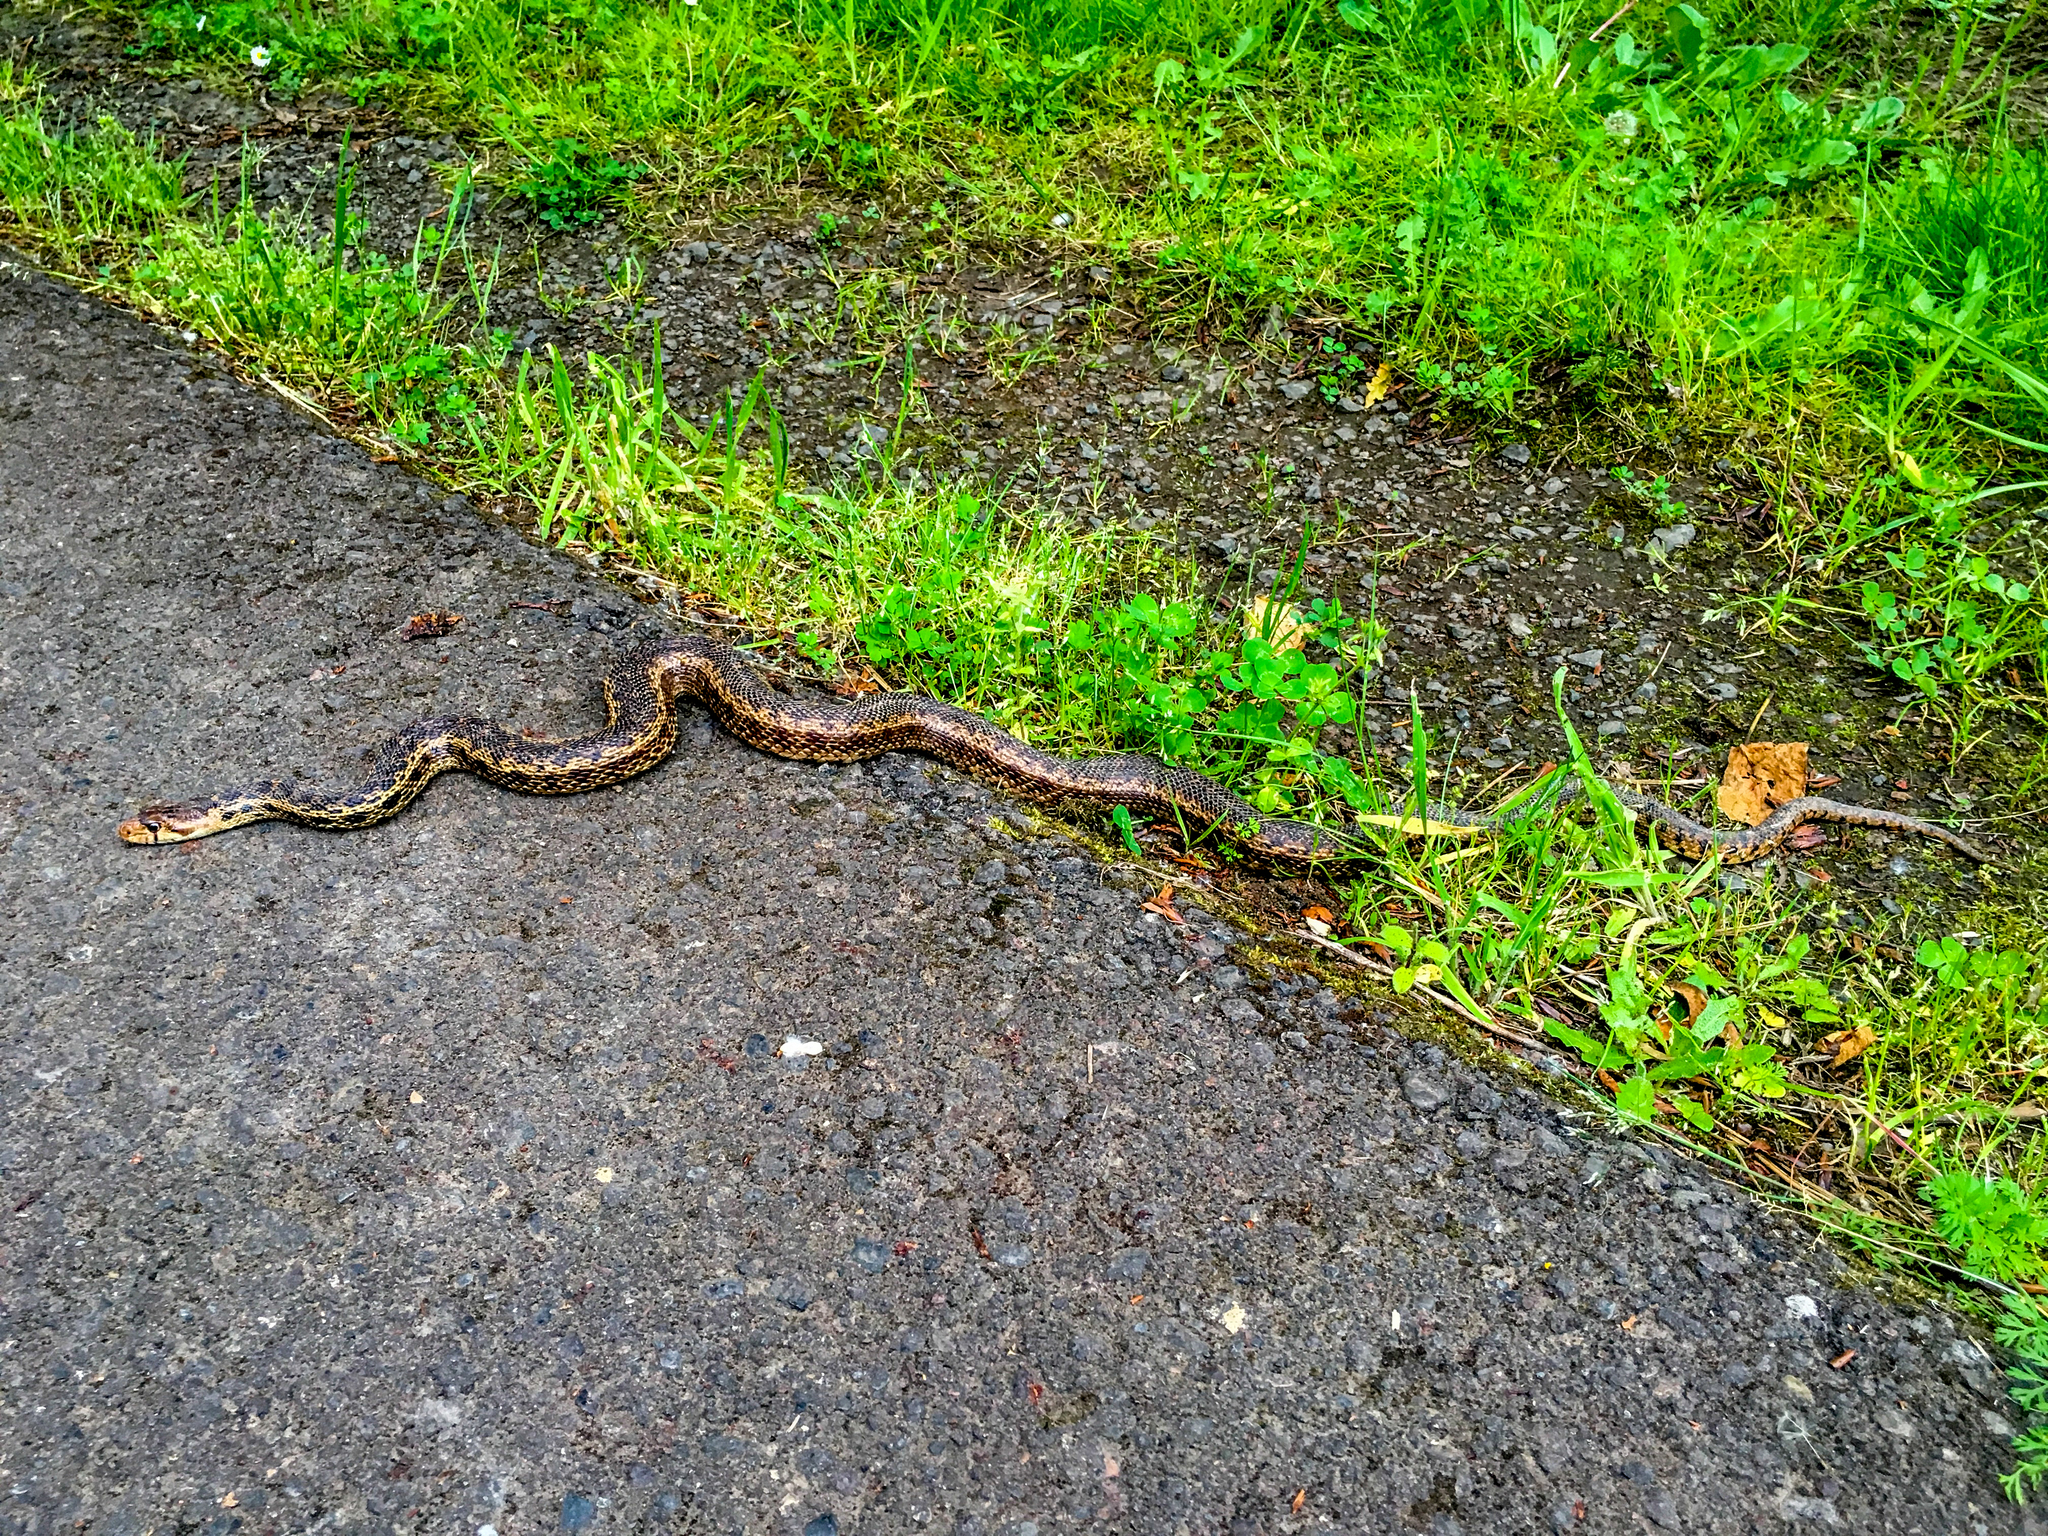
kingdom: Animalia
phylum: Chordata
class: Squamata
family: Colubridae
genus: Pituophis
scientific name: Pituophis catenifer
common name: Gopher snake
